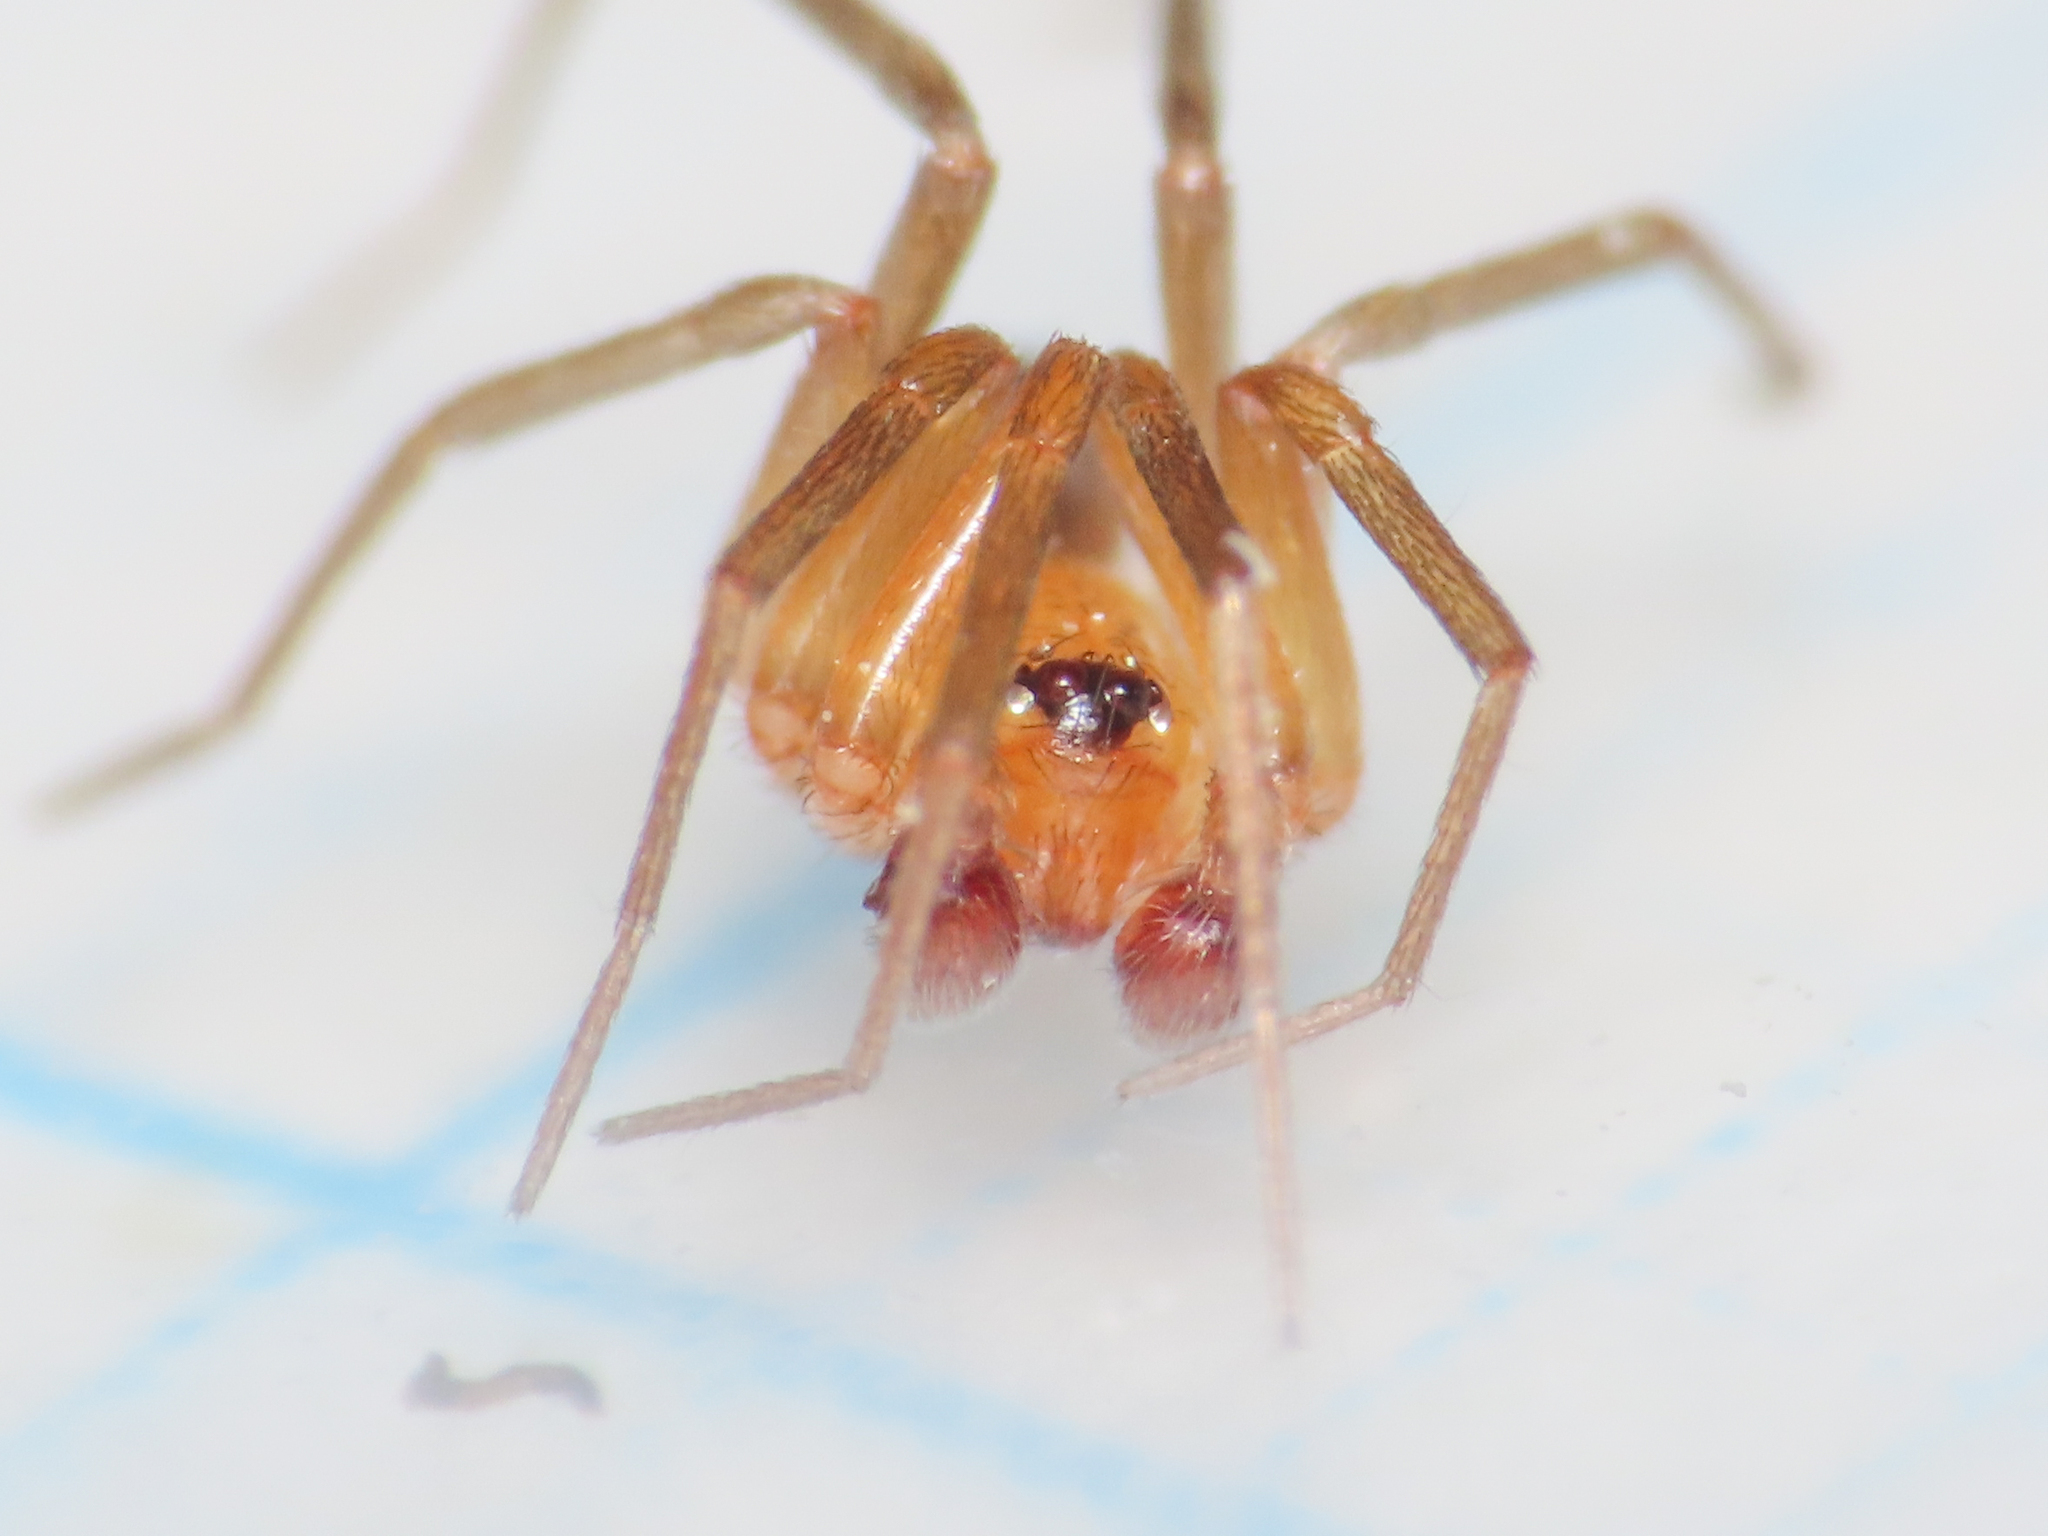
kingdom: Animalia
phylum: Arthropoda
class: Arachnida
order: Araneae
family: Zodariidae
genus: Zodarion
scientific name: Zodarion pusio
